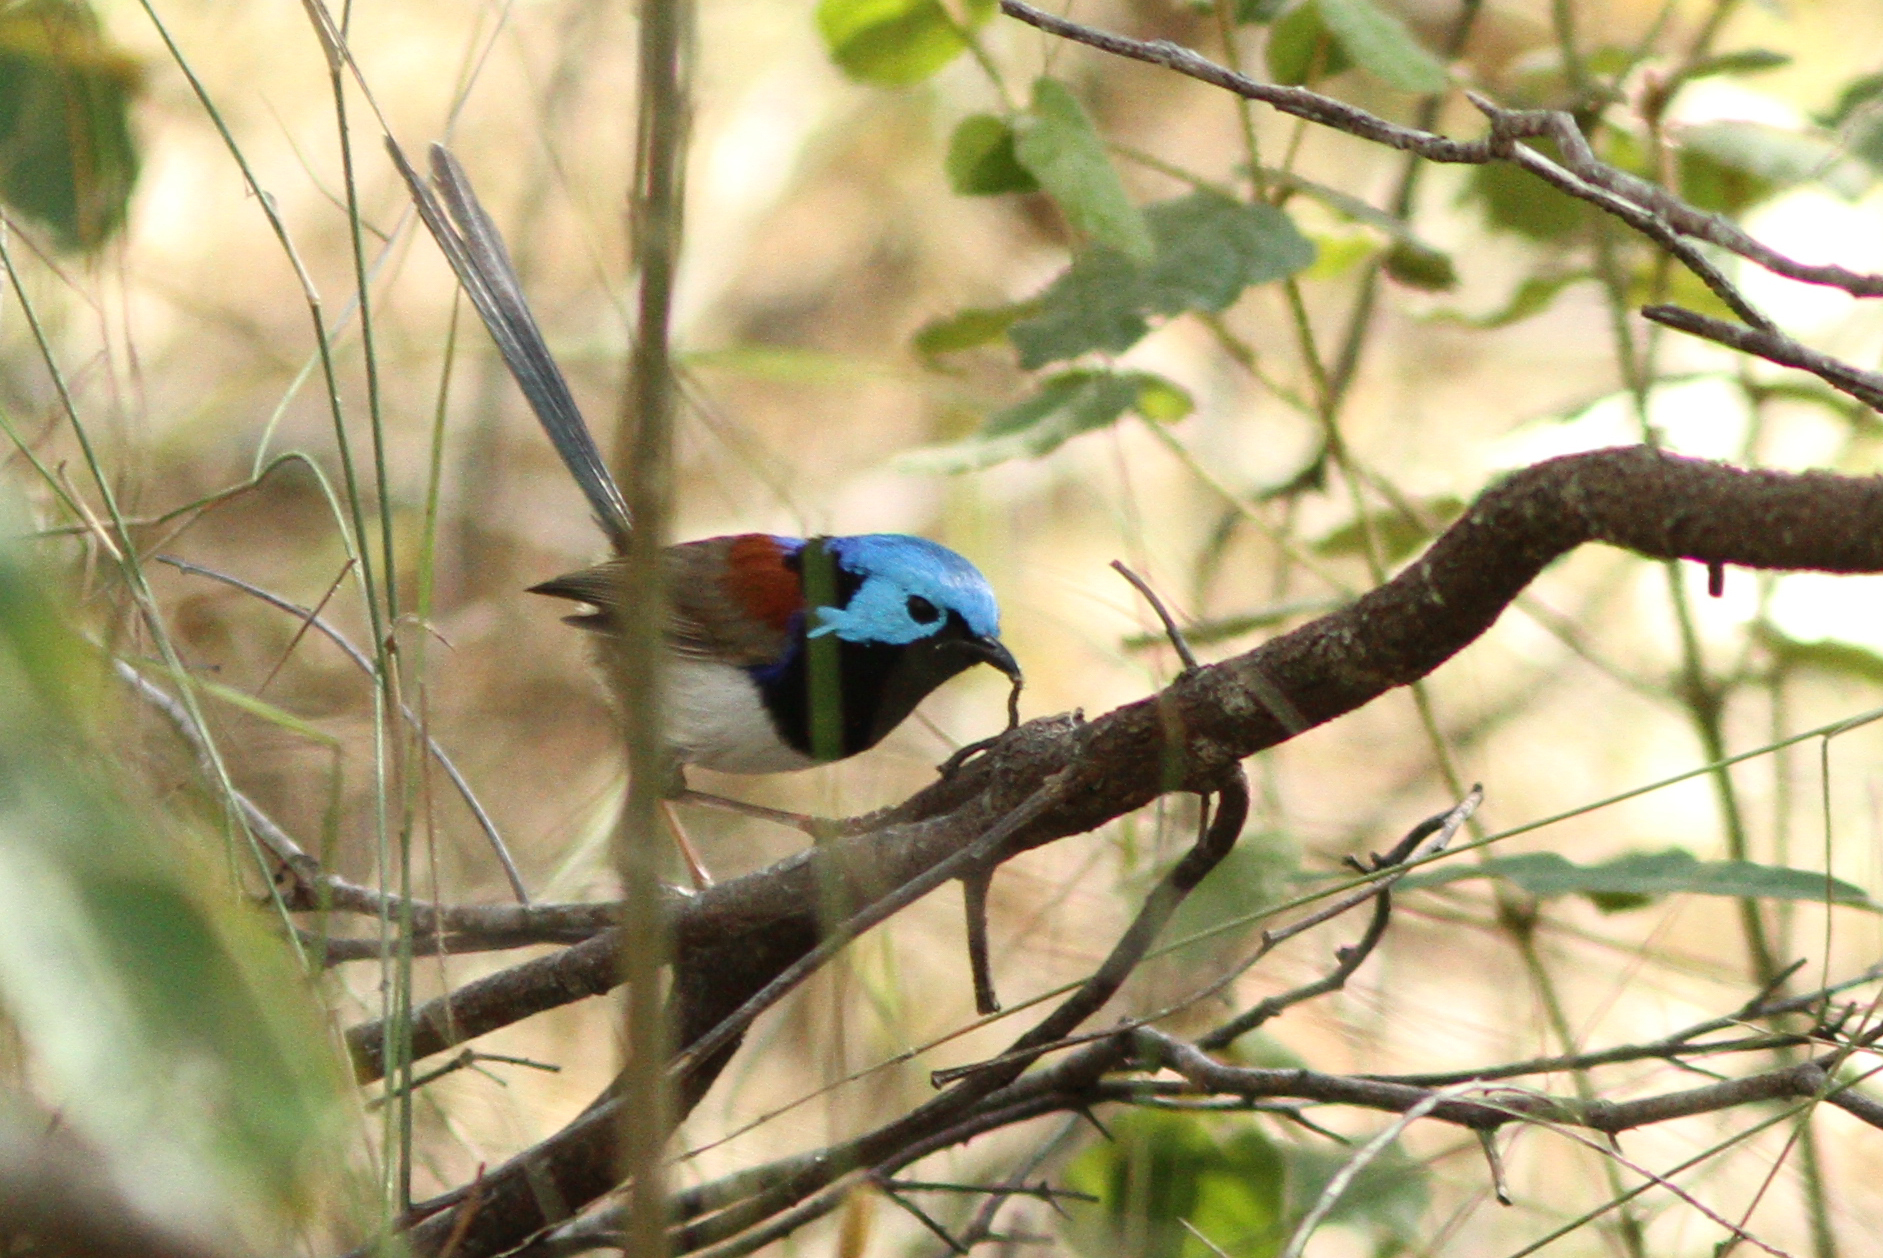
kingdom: Animalia
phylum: Chordata
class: Aves
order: Passeriformes
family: Maluridae
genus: Malurus
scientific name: Malurus assimilis
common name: Purple-backed fairywren
